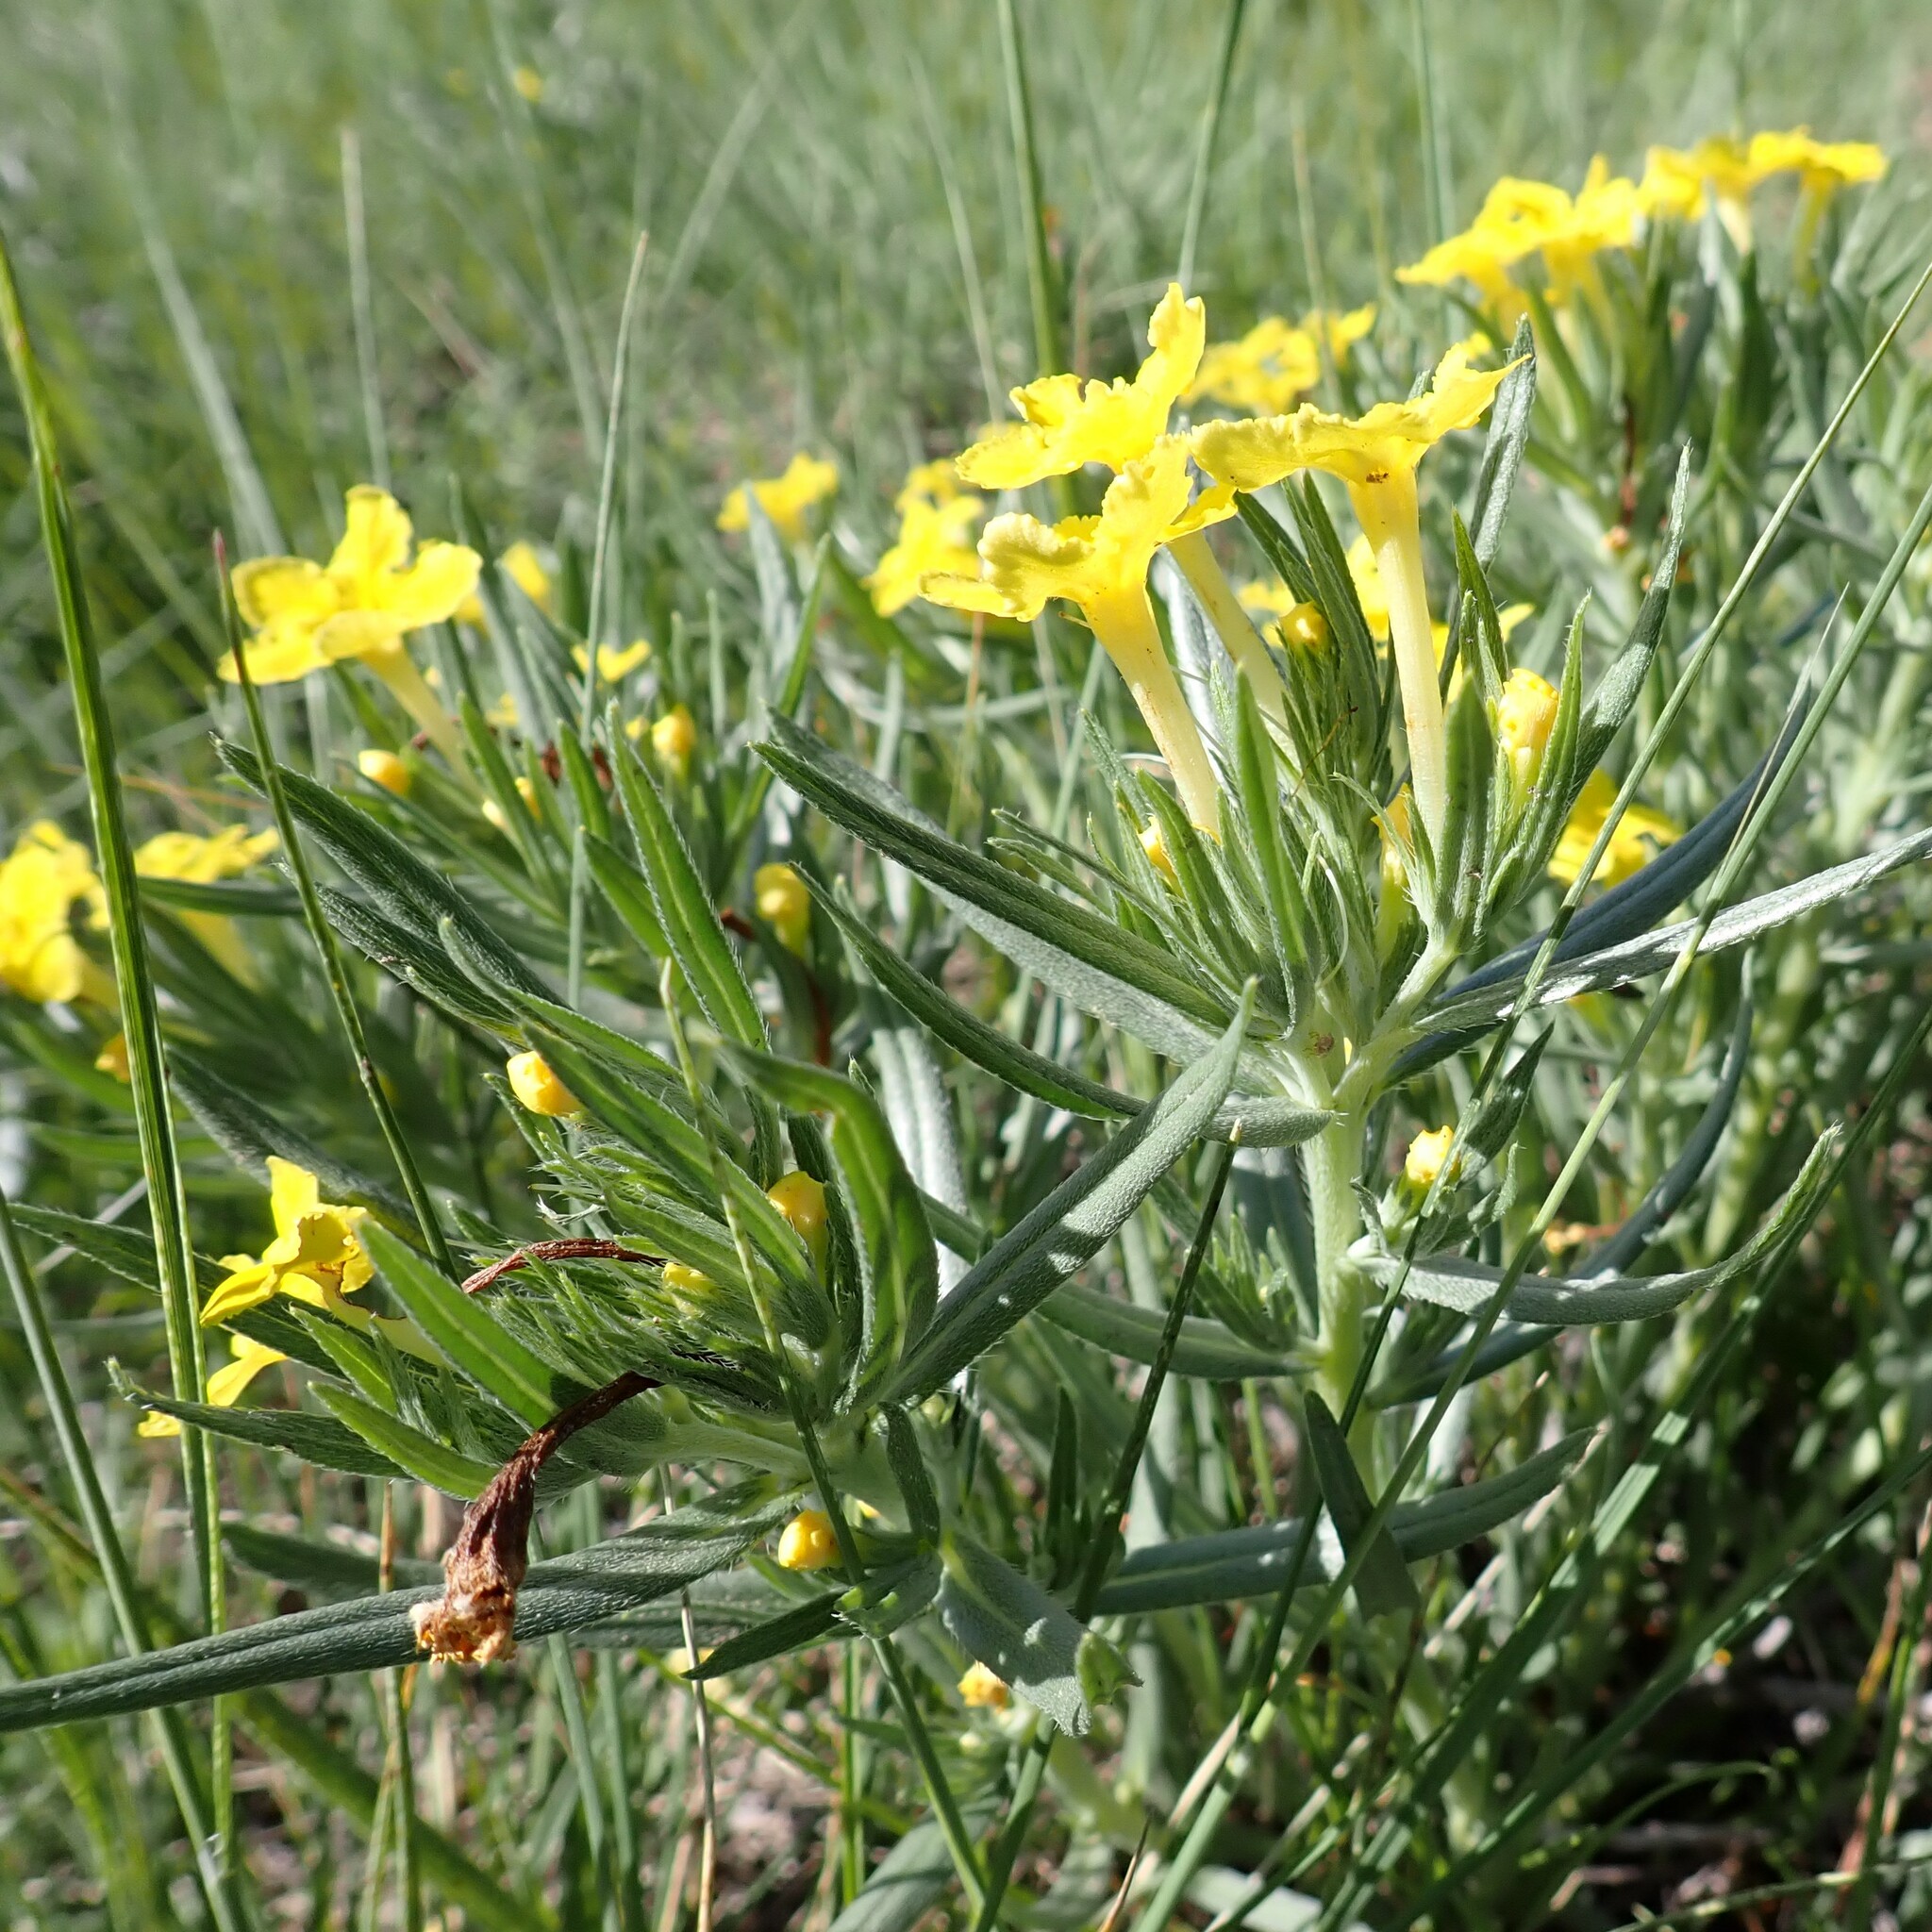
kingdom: Plantae
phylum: Tracheophyta
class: Magnoliopsida
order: Boraginales
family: Boraginaceae
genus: Lithospermum
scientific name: Lithospermum incisum
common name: Fringed gromwell
